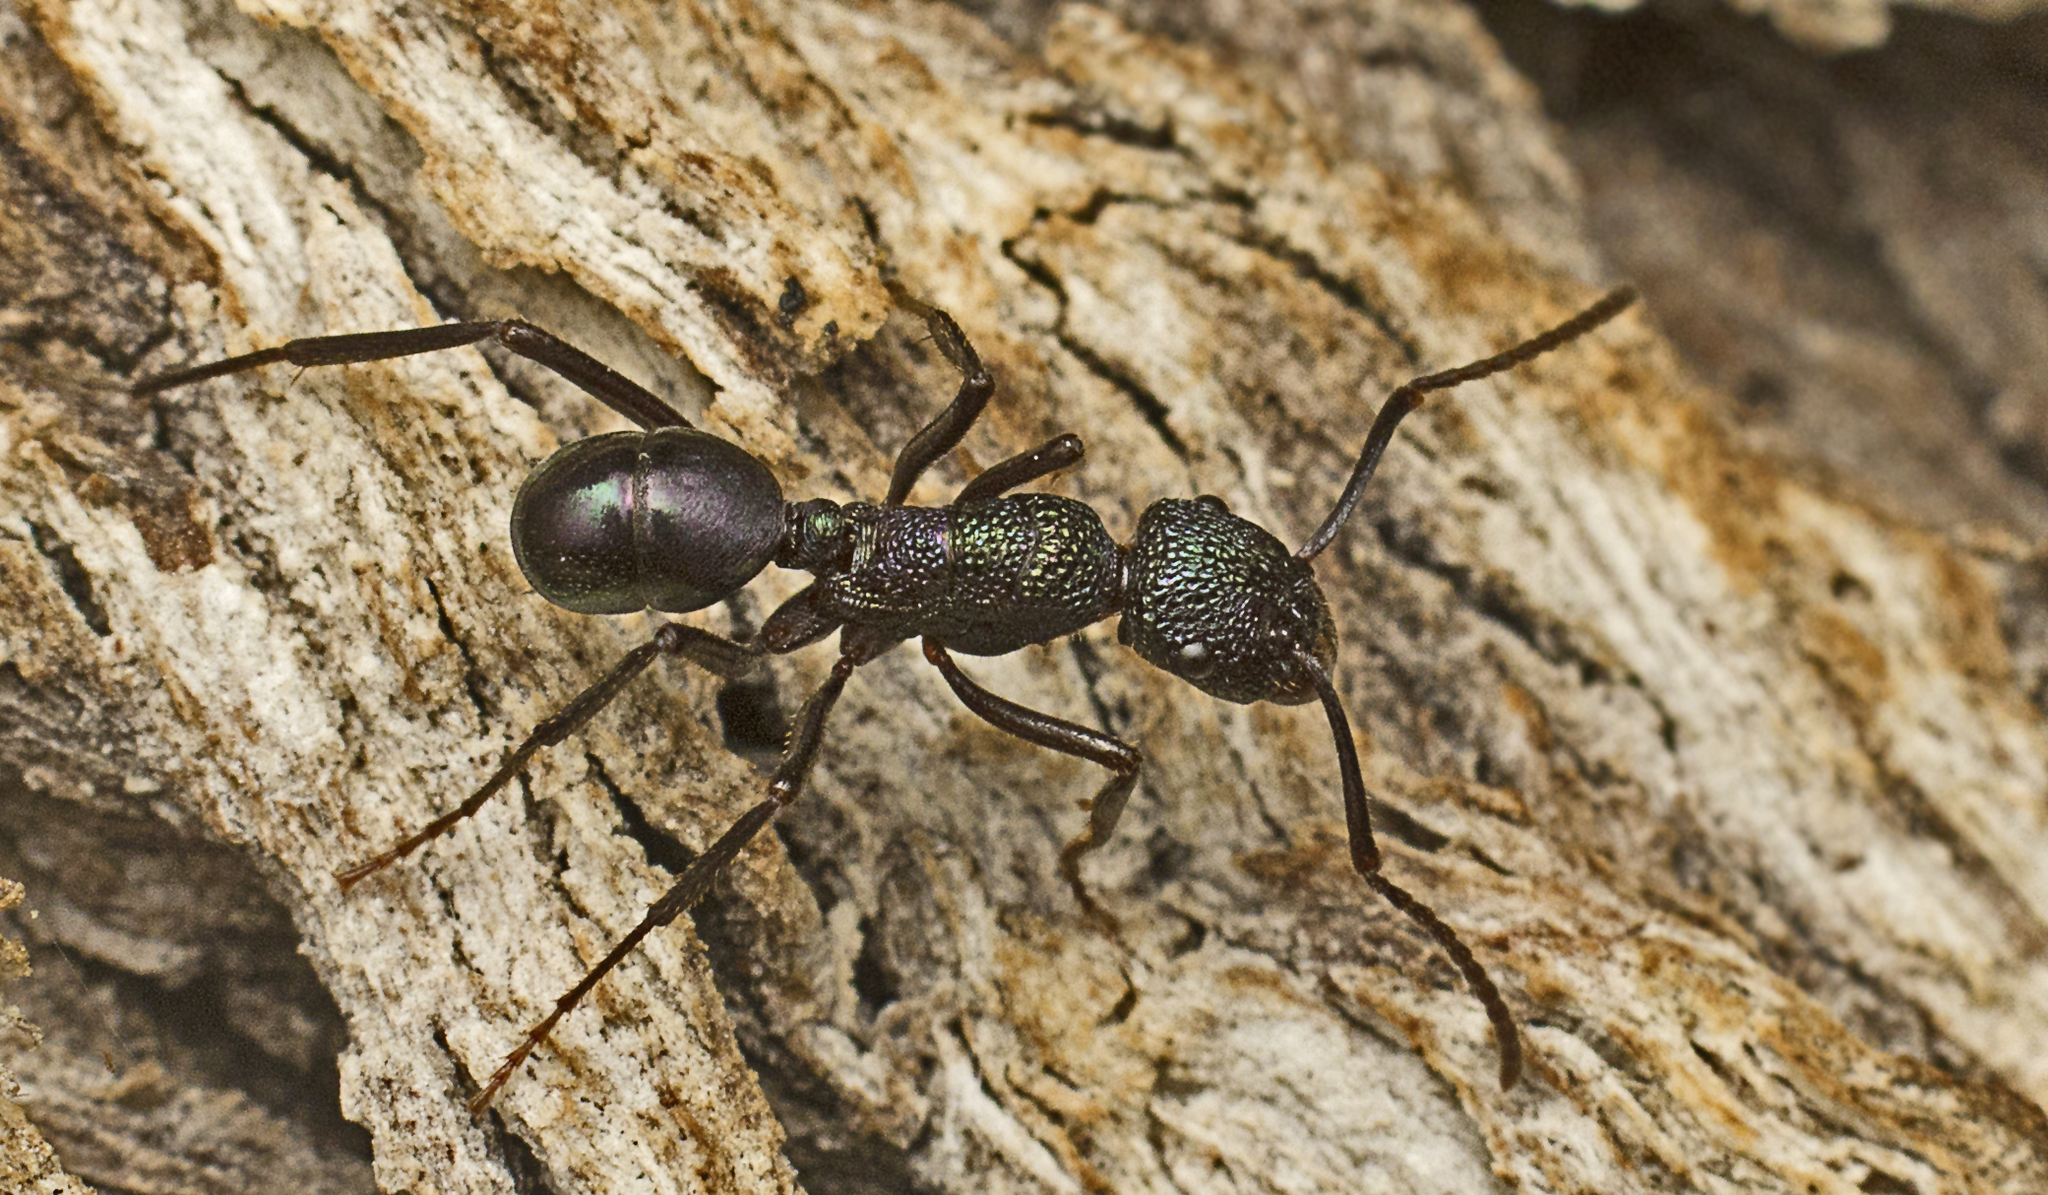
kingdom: Animalia
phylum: Arthropoda
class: Insecta
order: Hymenoptera
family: Formicidae
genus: Rhytidoponera
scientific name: Rhytidoponera violacea
